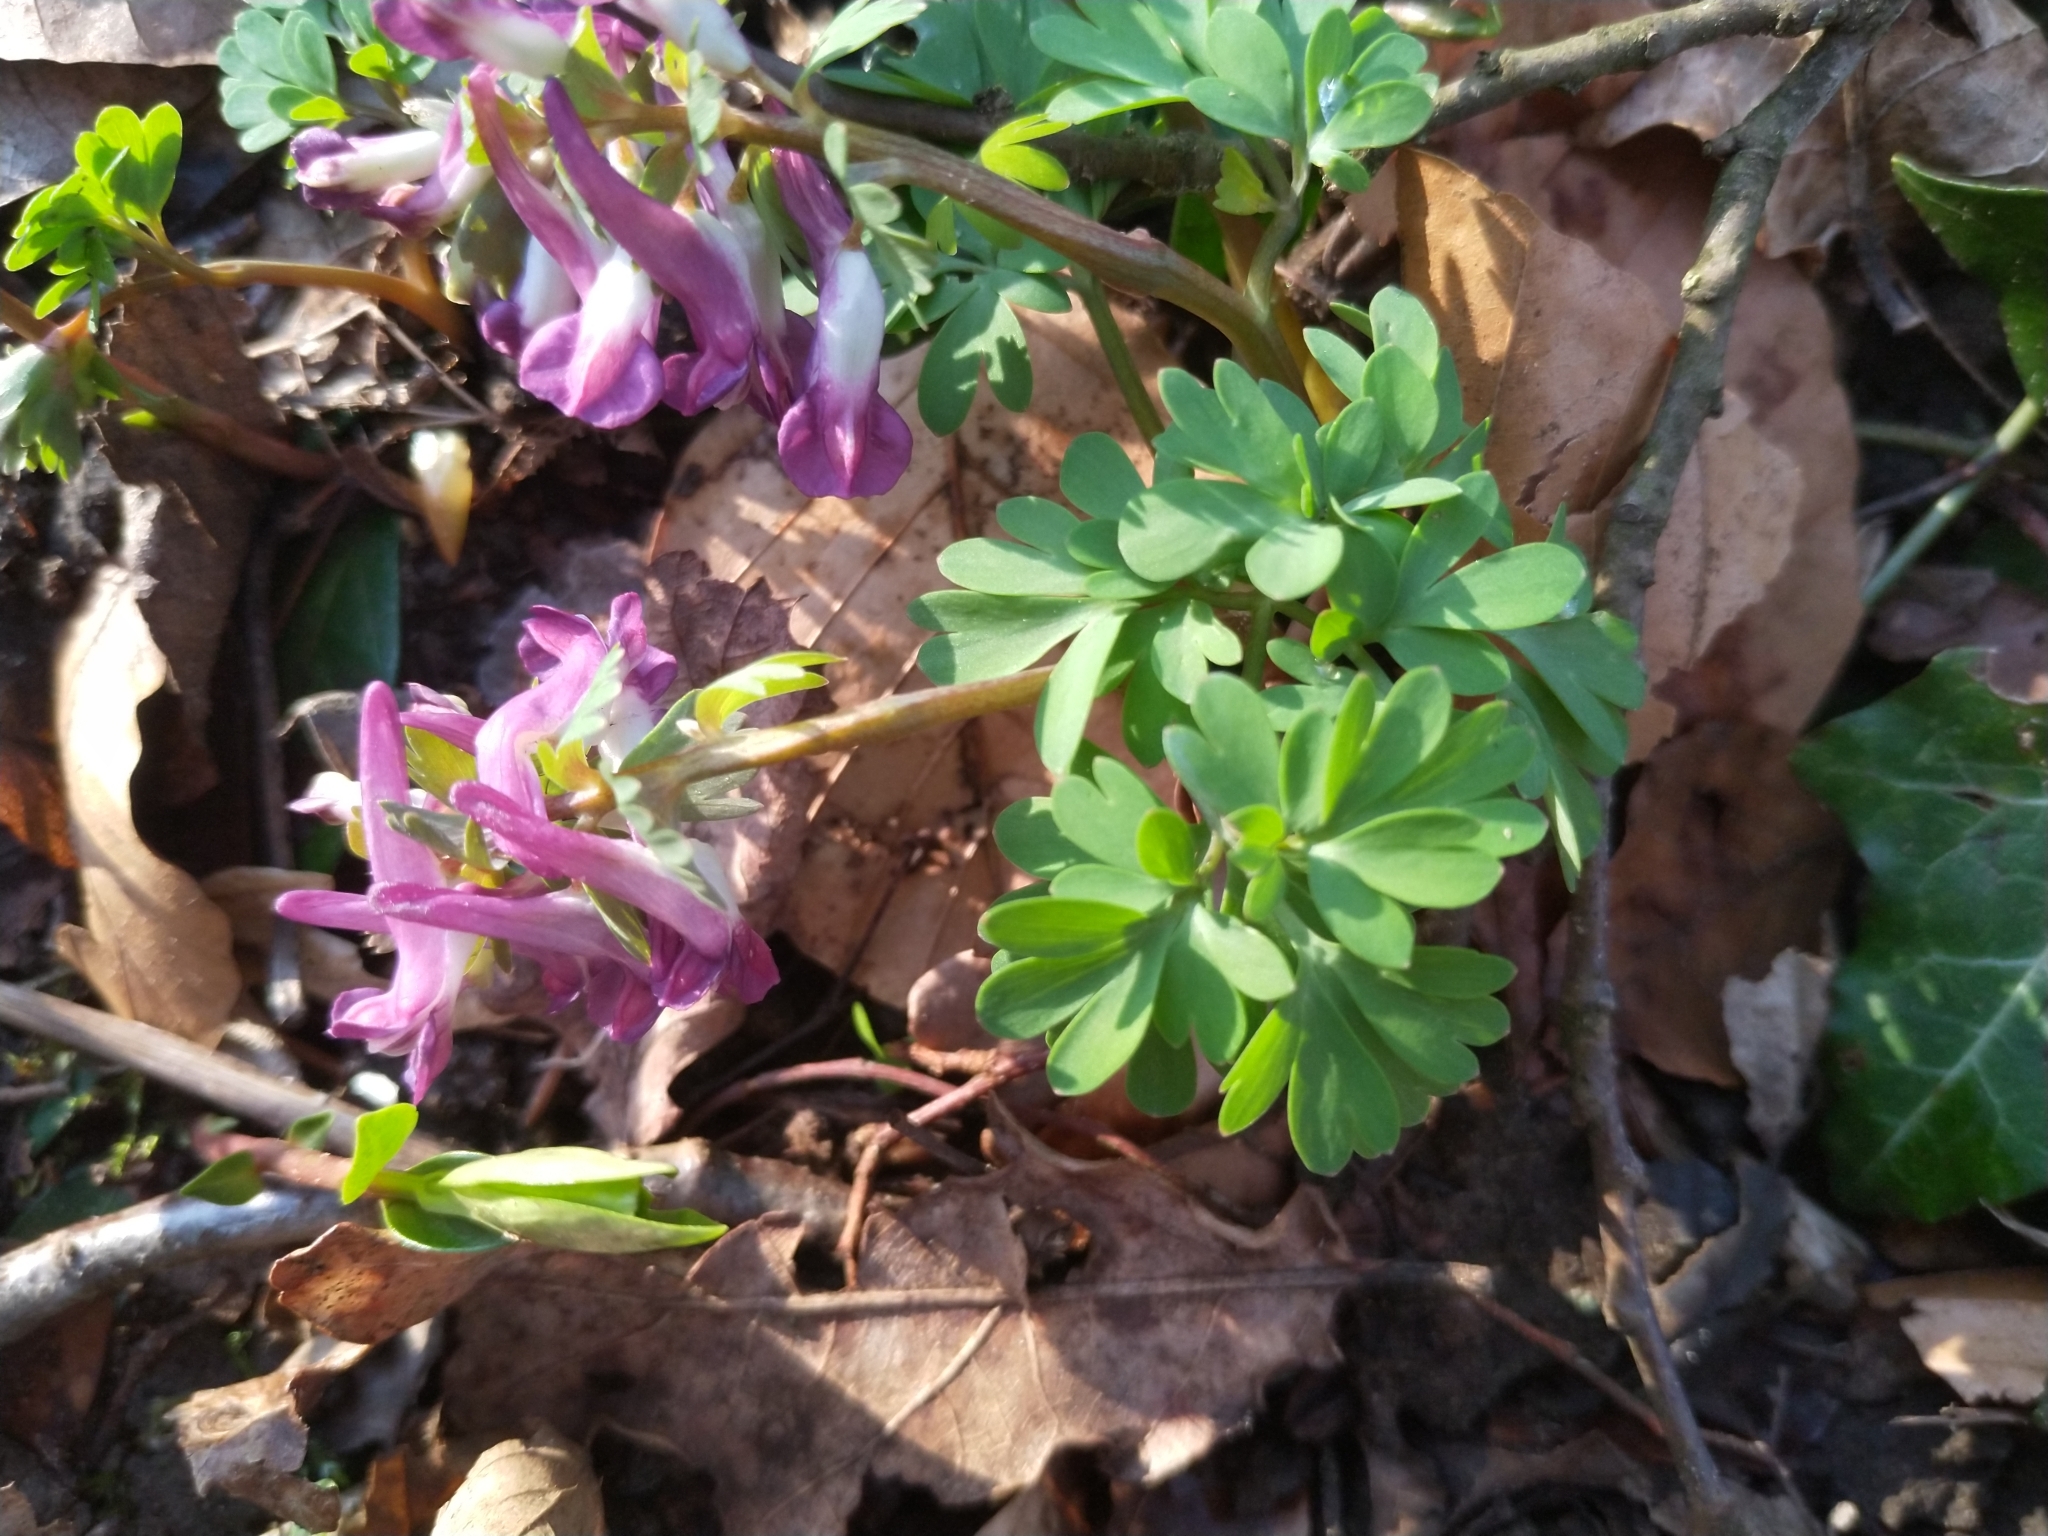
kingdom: Plantae
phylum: Tracheophyta
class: Magnoliopsida
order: Ranunculales
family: Papaveraceae
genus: Corydalis
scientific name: Corydalis solida
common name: Bird-in-a-bush
